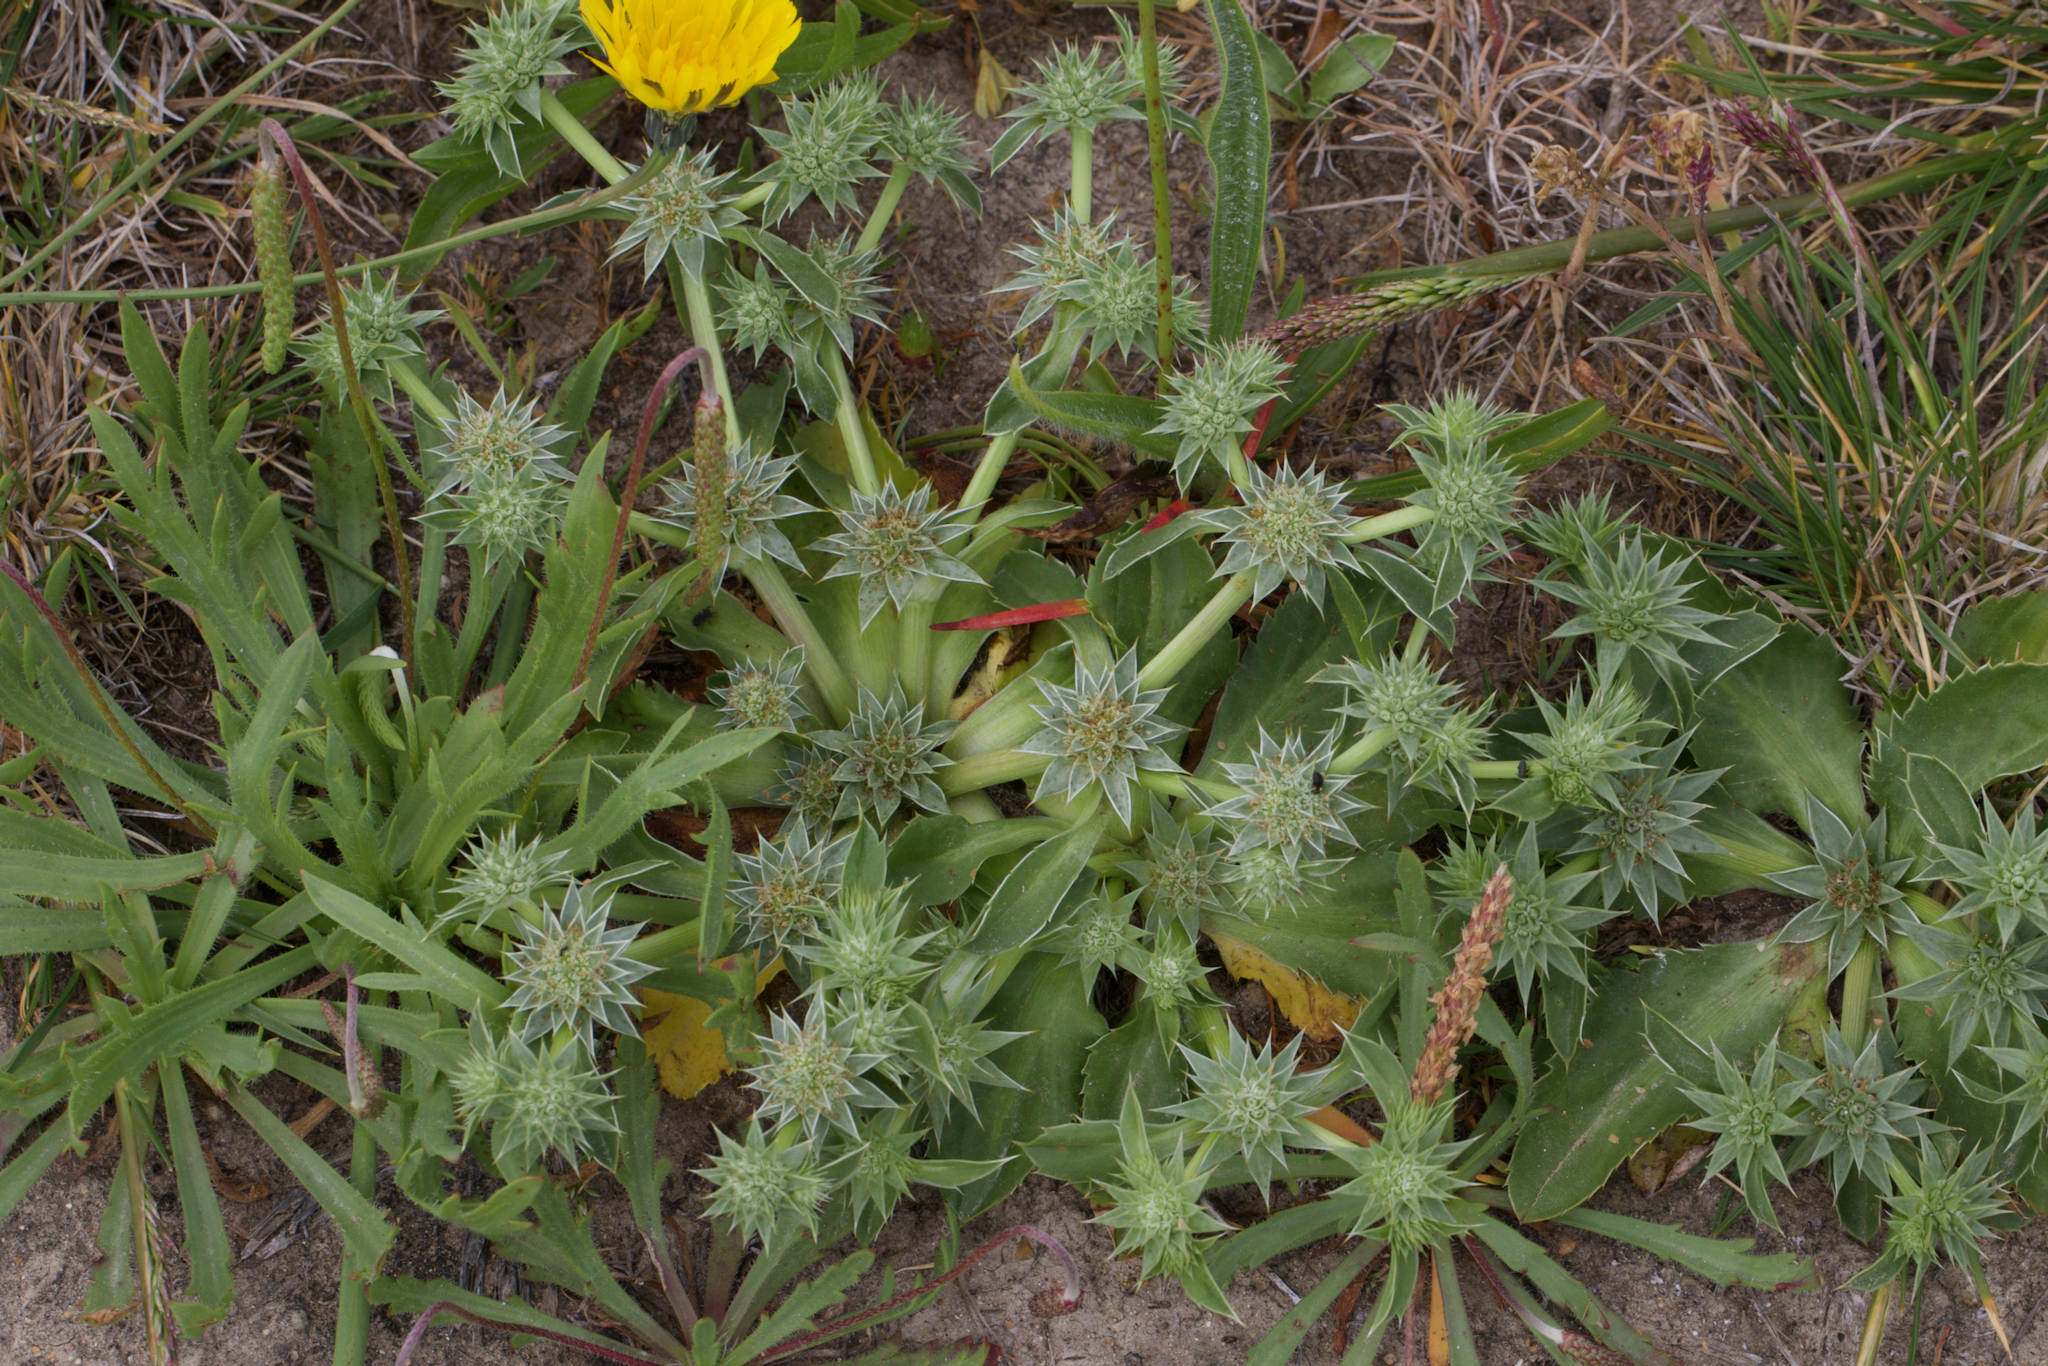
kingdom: Plantae
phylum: Tracheophyta
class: Magnoliopsida
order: Apiales
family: Apiaceae
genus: Eryngium
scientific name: Eryngium armatum
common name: Coyote thistle
